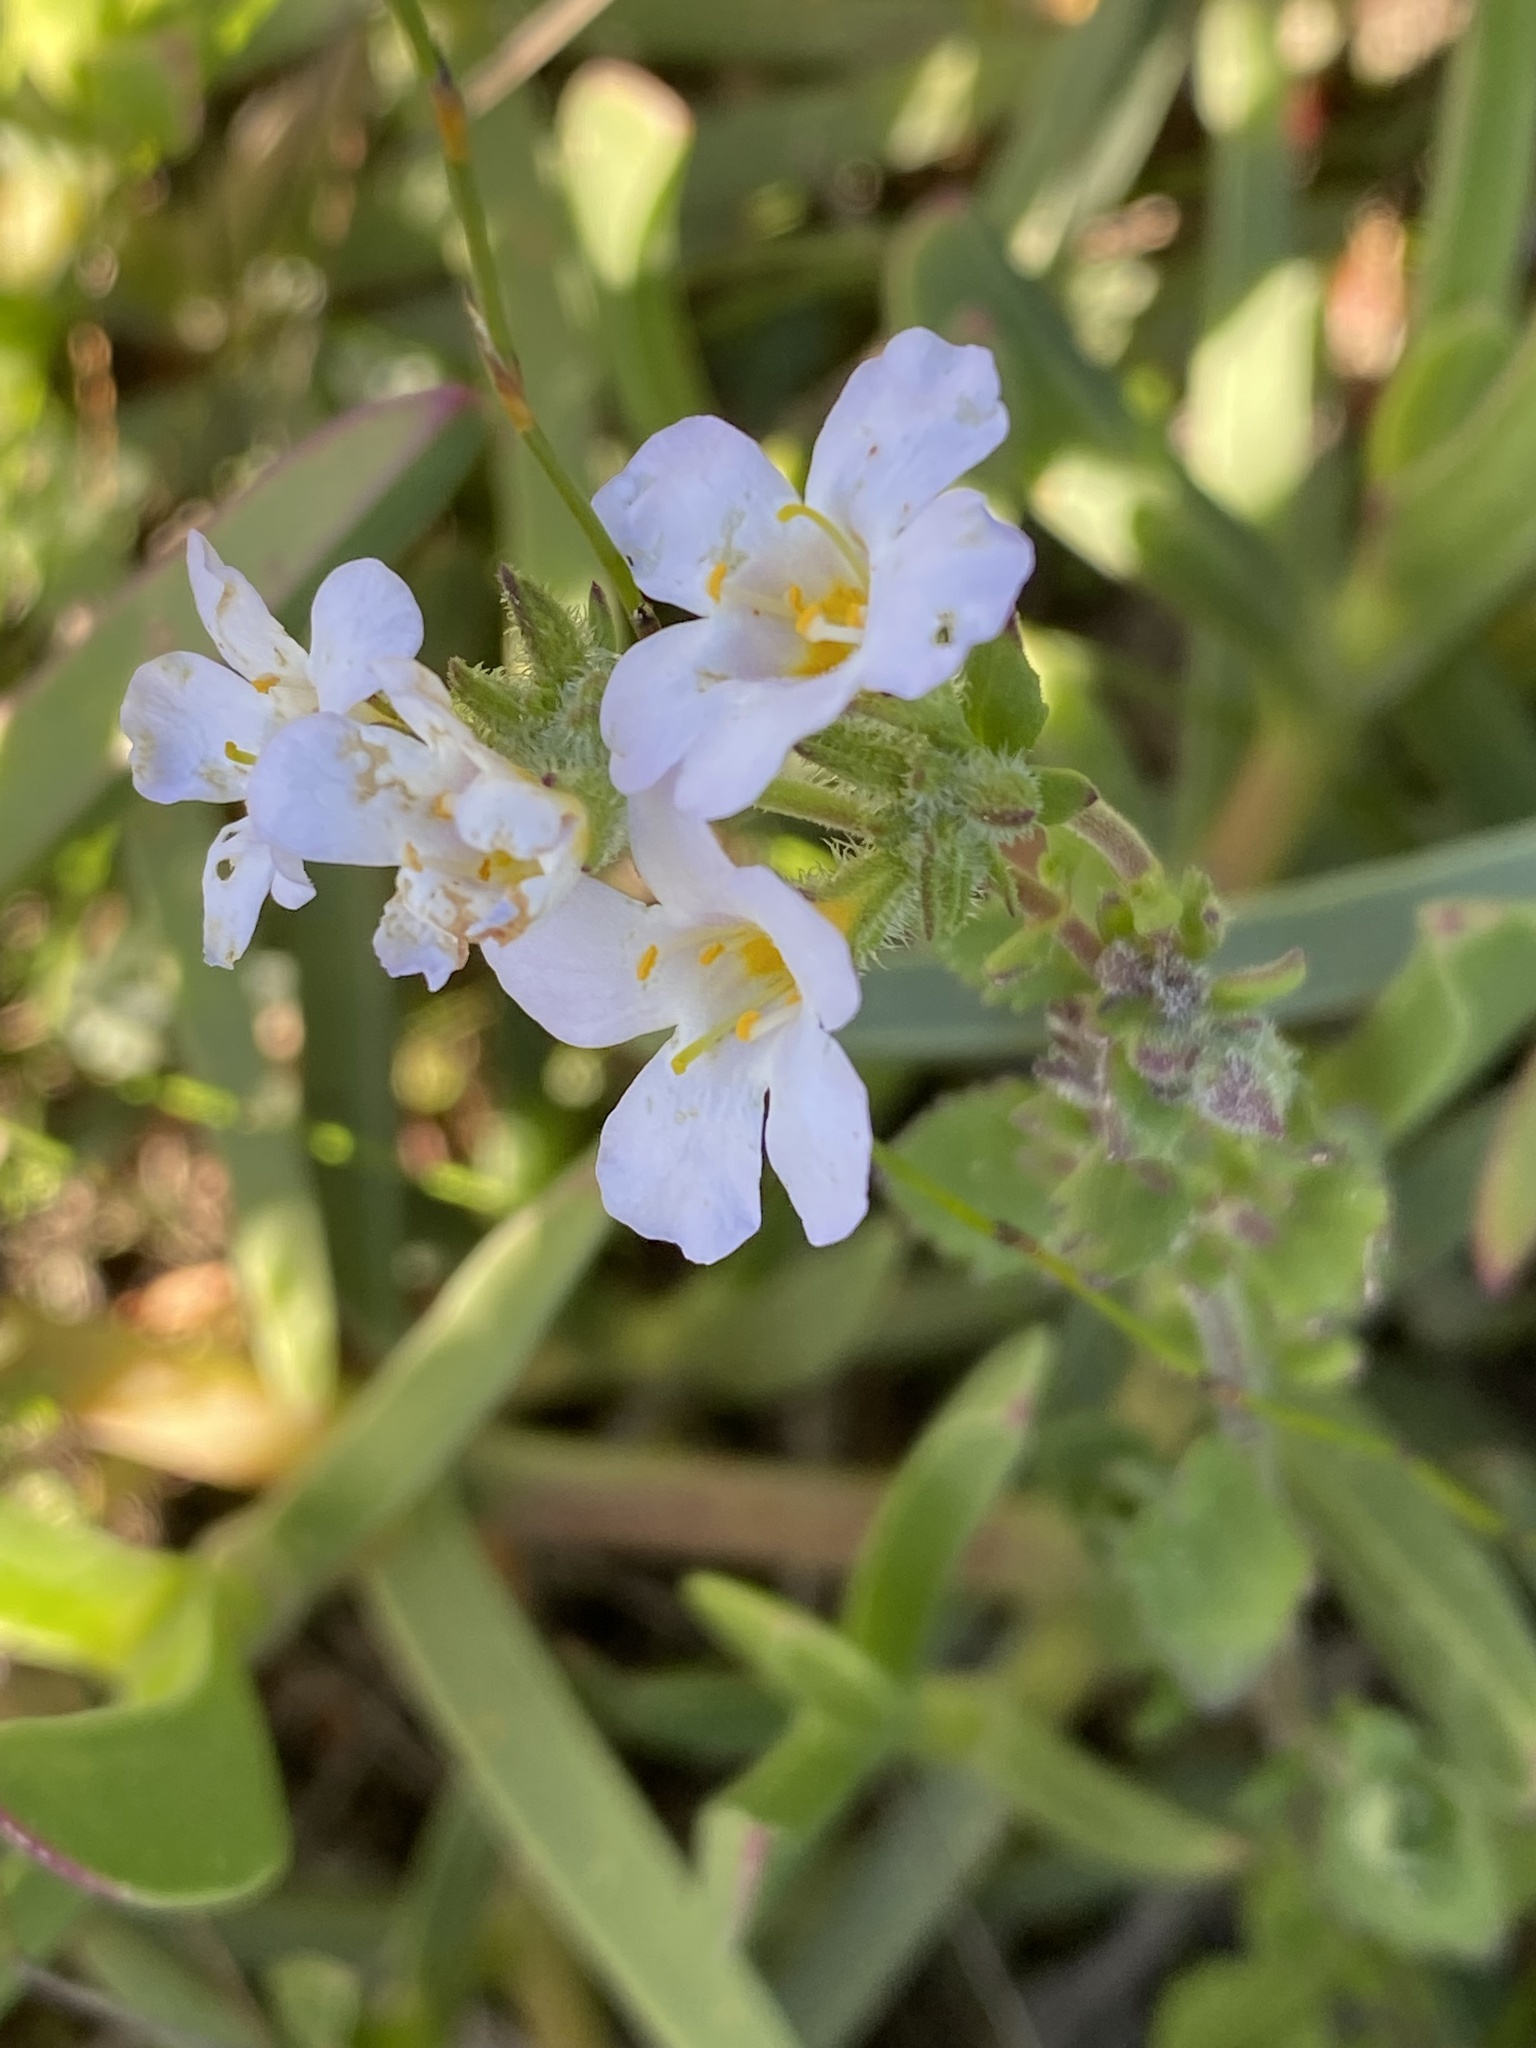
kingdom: Plantae
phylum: Tracheophyta
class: Magnoliopsida
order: Lamiales
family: Scrophulariaceae
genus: Chaenostoma
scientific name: Chaenostoma cordatum
